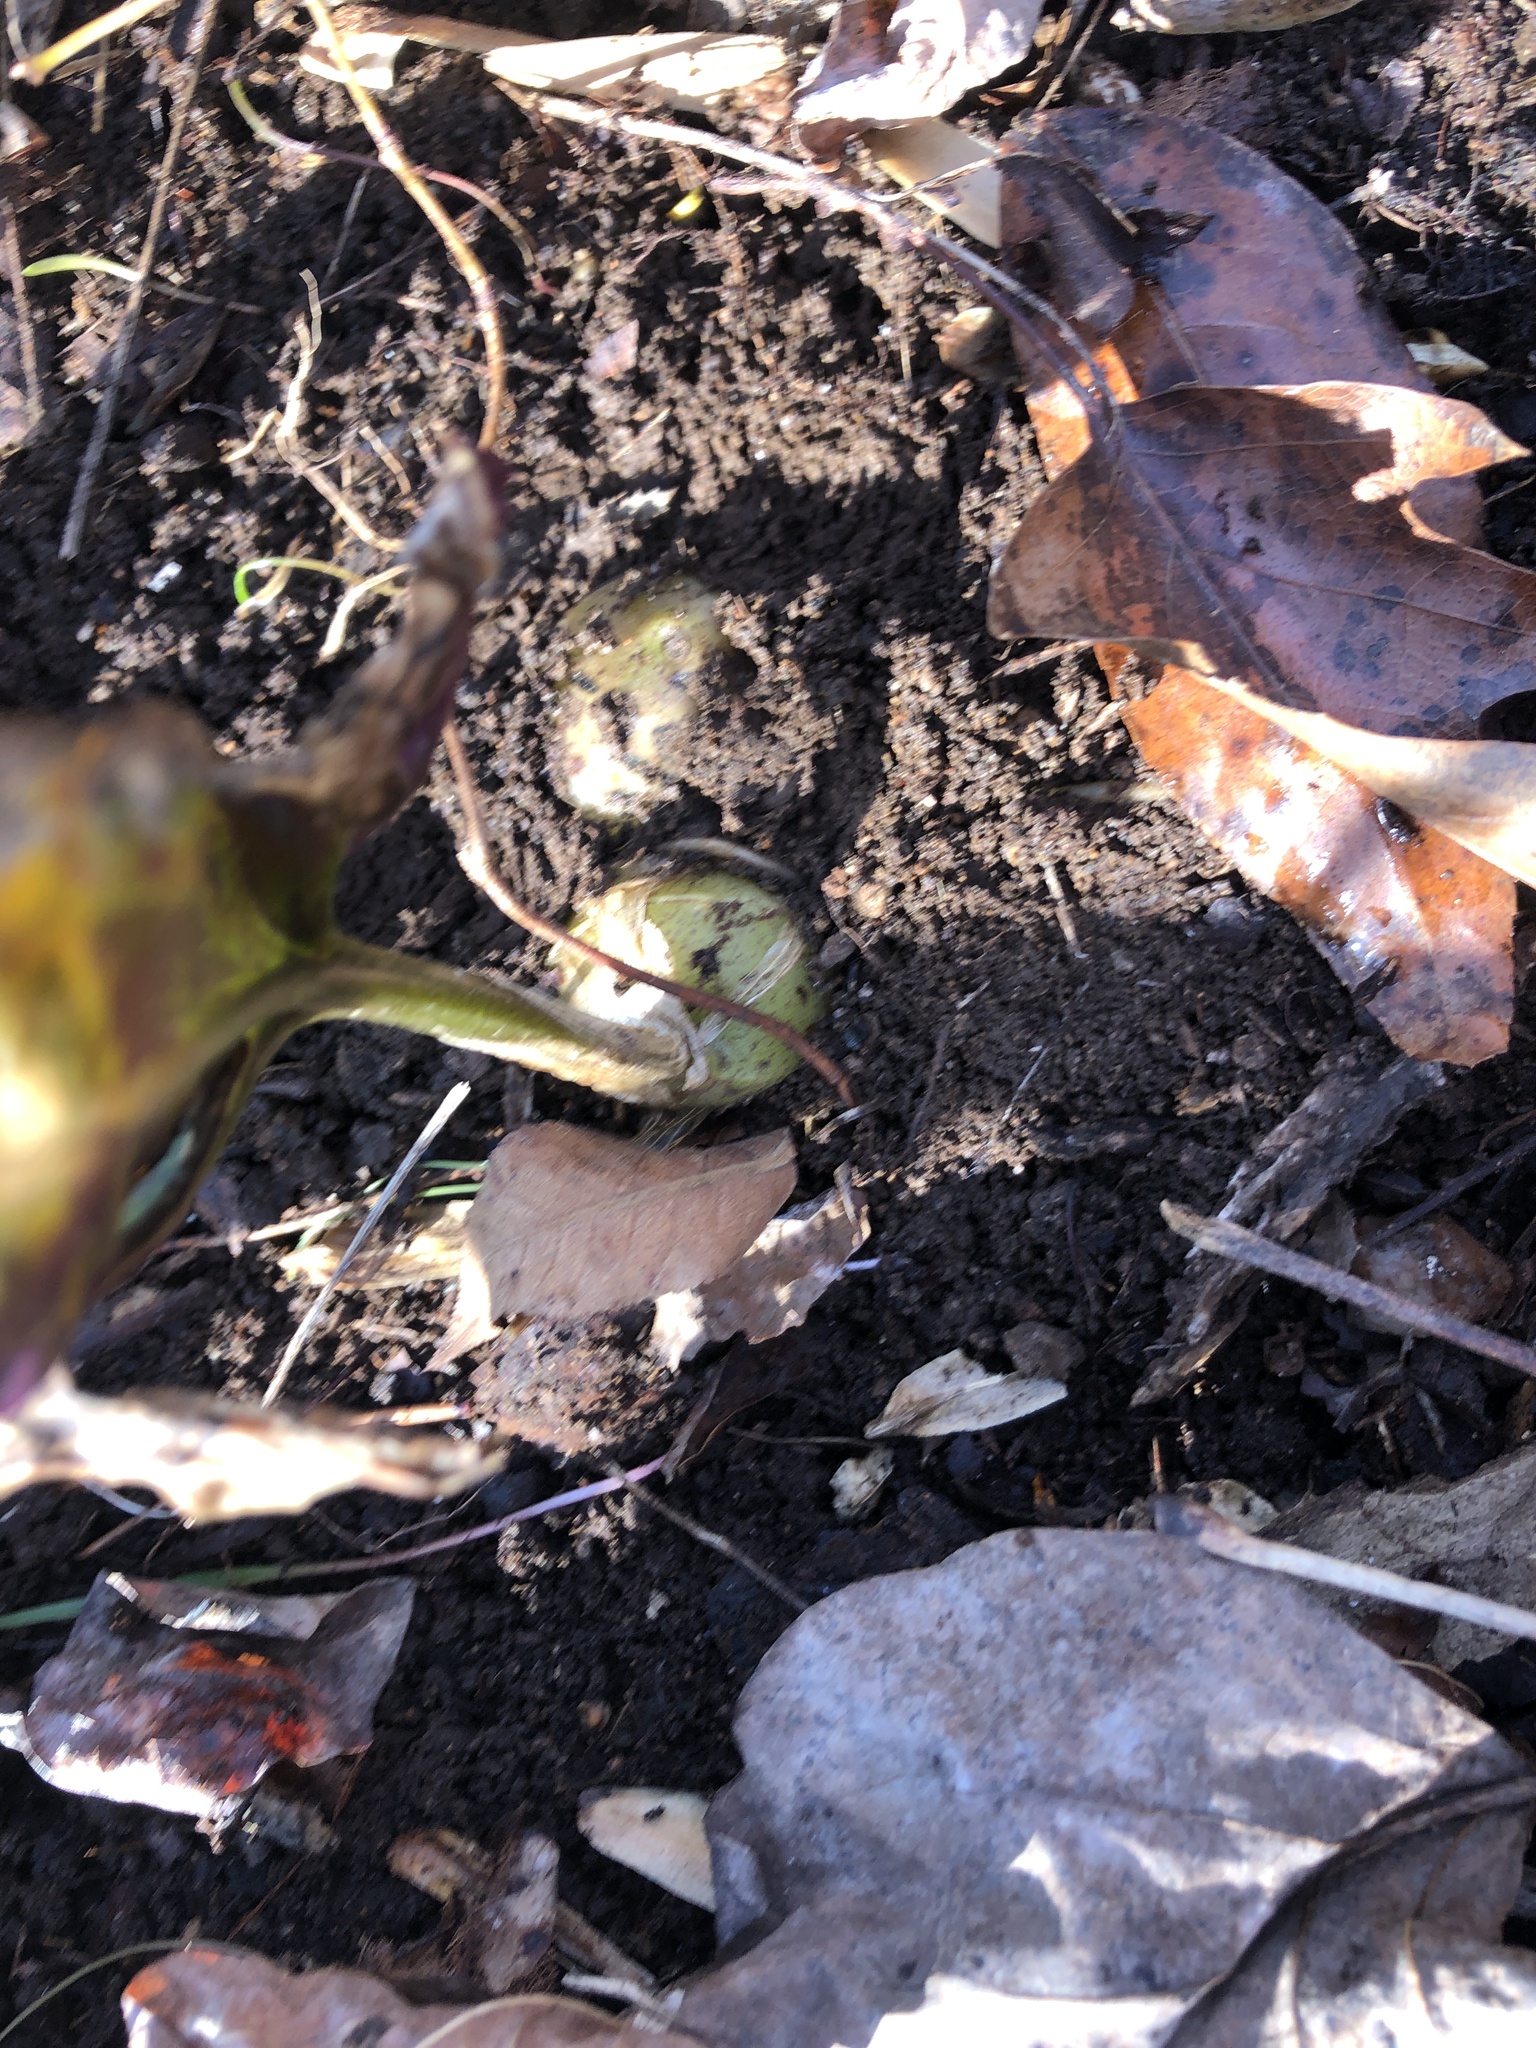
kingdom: Plantae
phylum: Tracheophyta
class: Liliopsida
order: Asparagales
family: Orchidaceae
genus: Tipularia
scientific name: Tipularia discolor
